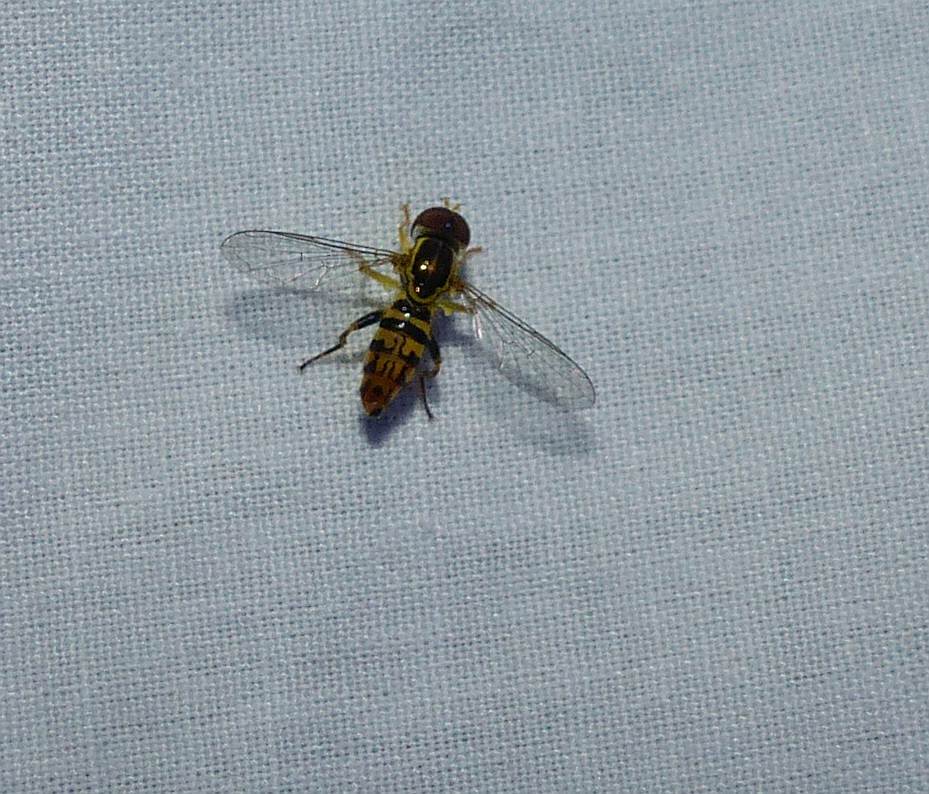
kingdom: Animalia
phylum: Arthropoda
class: Insecta
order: Diptera
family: Syrphidae
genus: Toxomerus
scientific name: Toxomerus geminatus
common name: Eastern calligrapher
